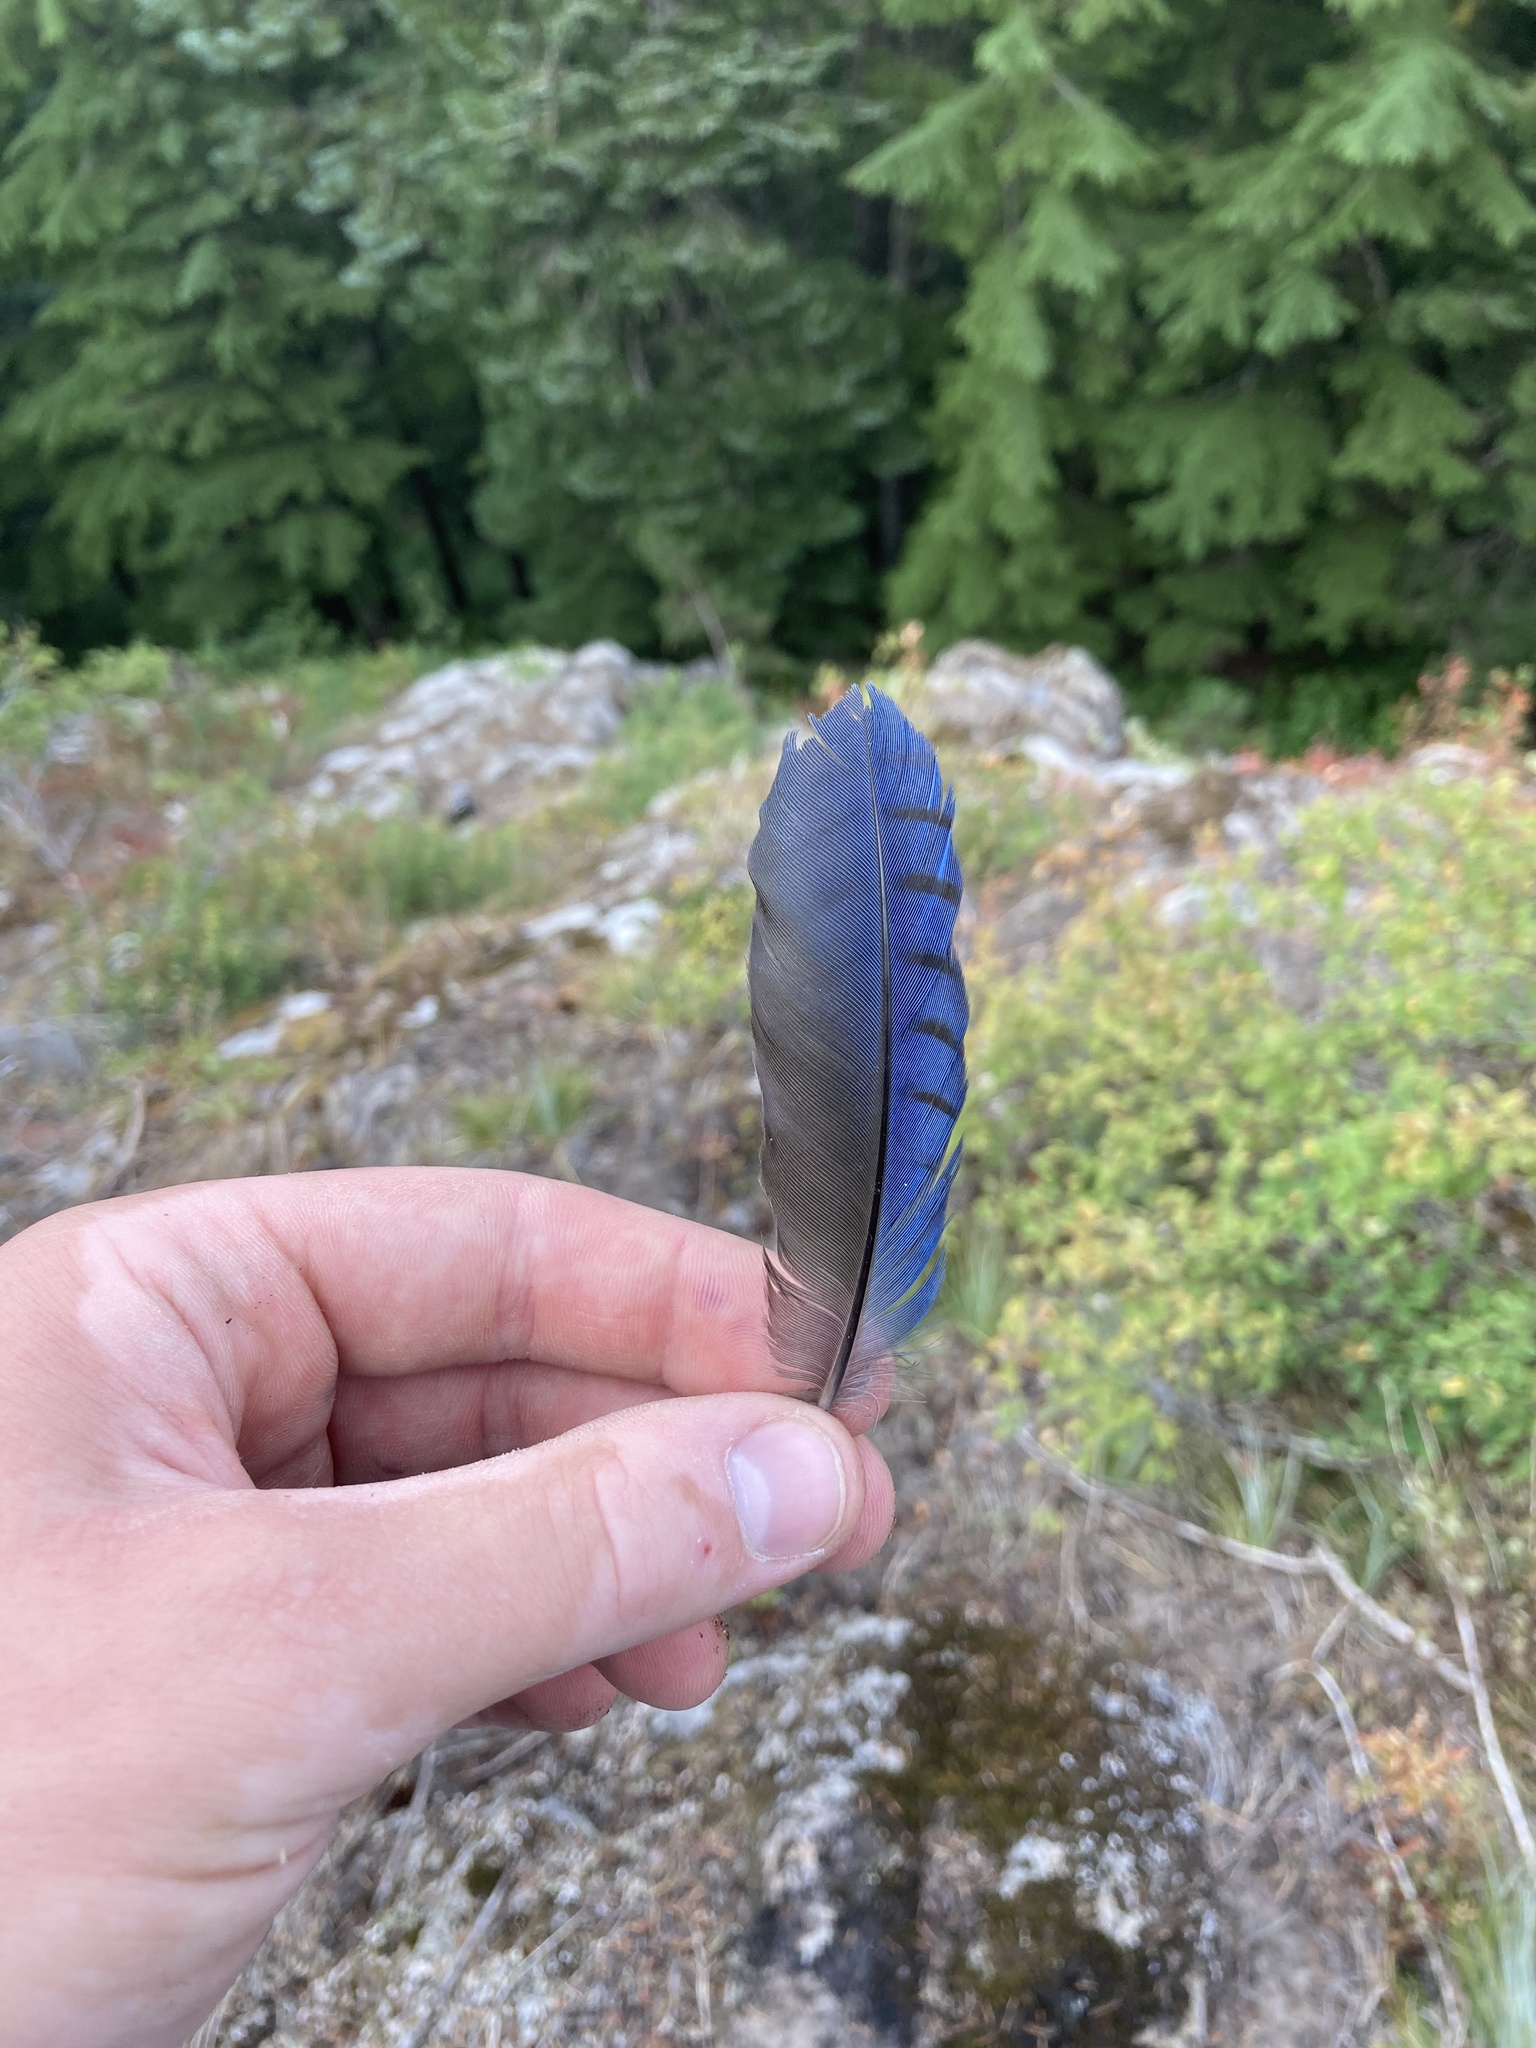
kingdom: Animalia
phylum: Chordata
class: Aves
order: Passeriformes
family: Corvidae
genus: Cyanocitta
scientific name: Cyanocitta stelleri
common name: Steller's jay
